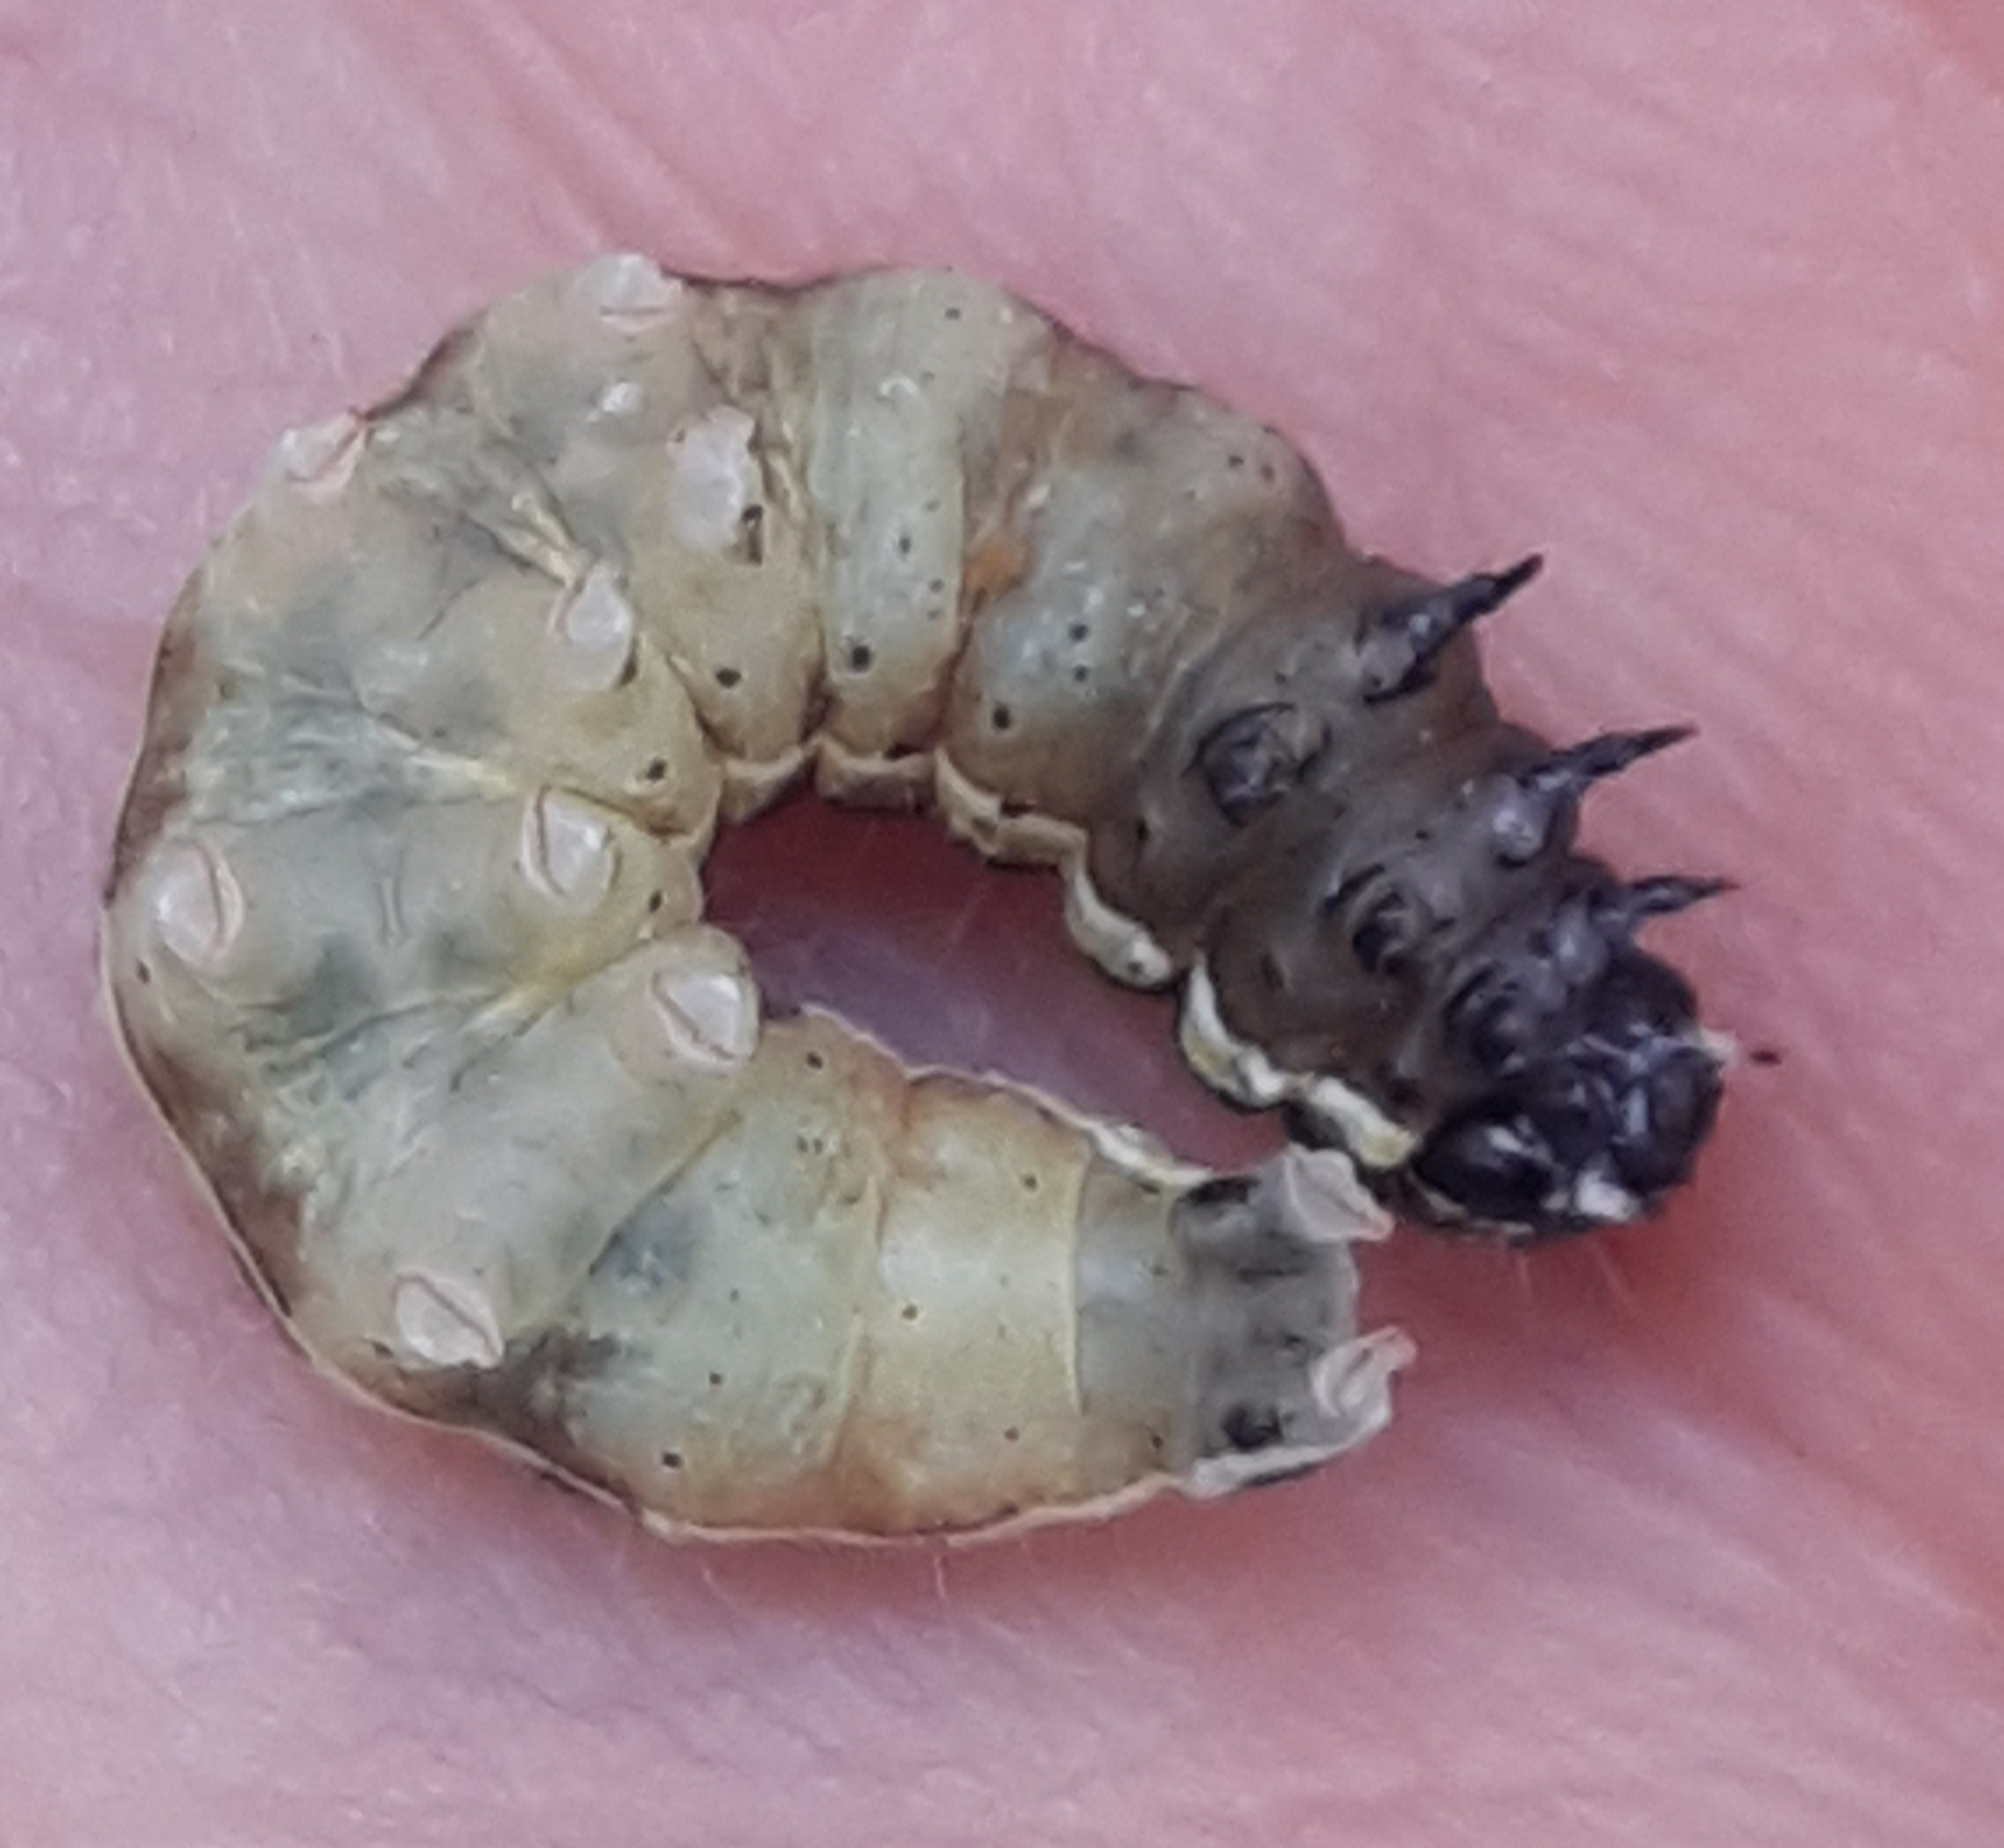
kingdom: Animalia
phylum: Arthropoda
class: Insecta
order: Lepidoptera
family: Noctuidae
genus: Orthosia
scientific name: Orthosia cruda
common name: Small quaker
